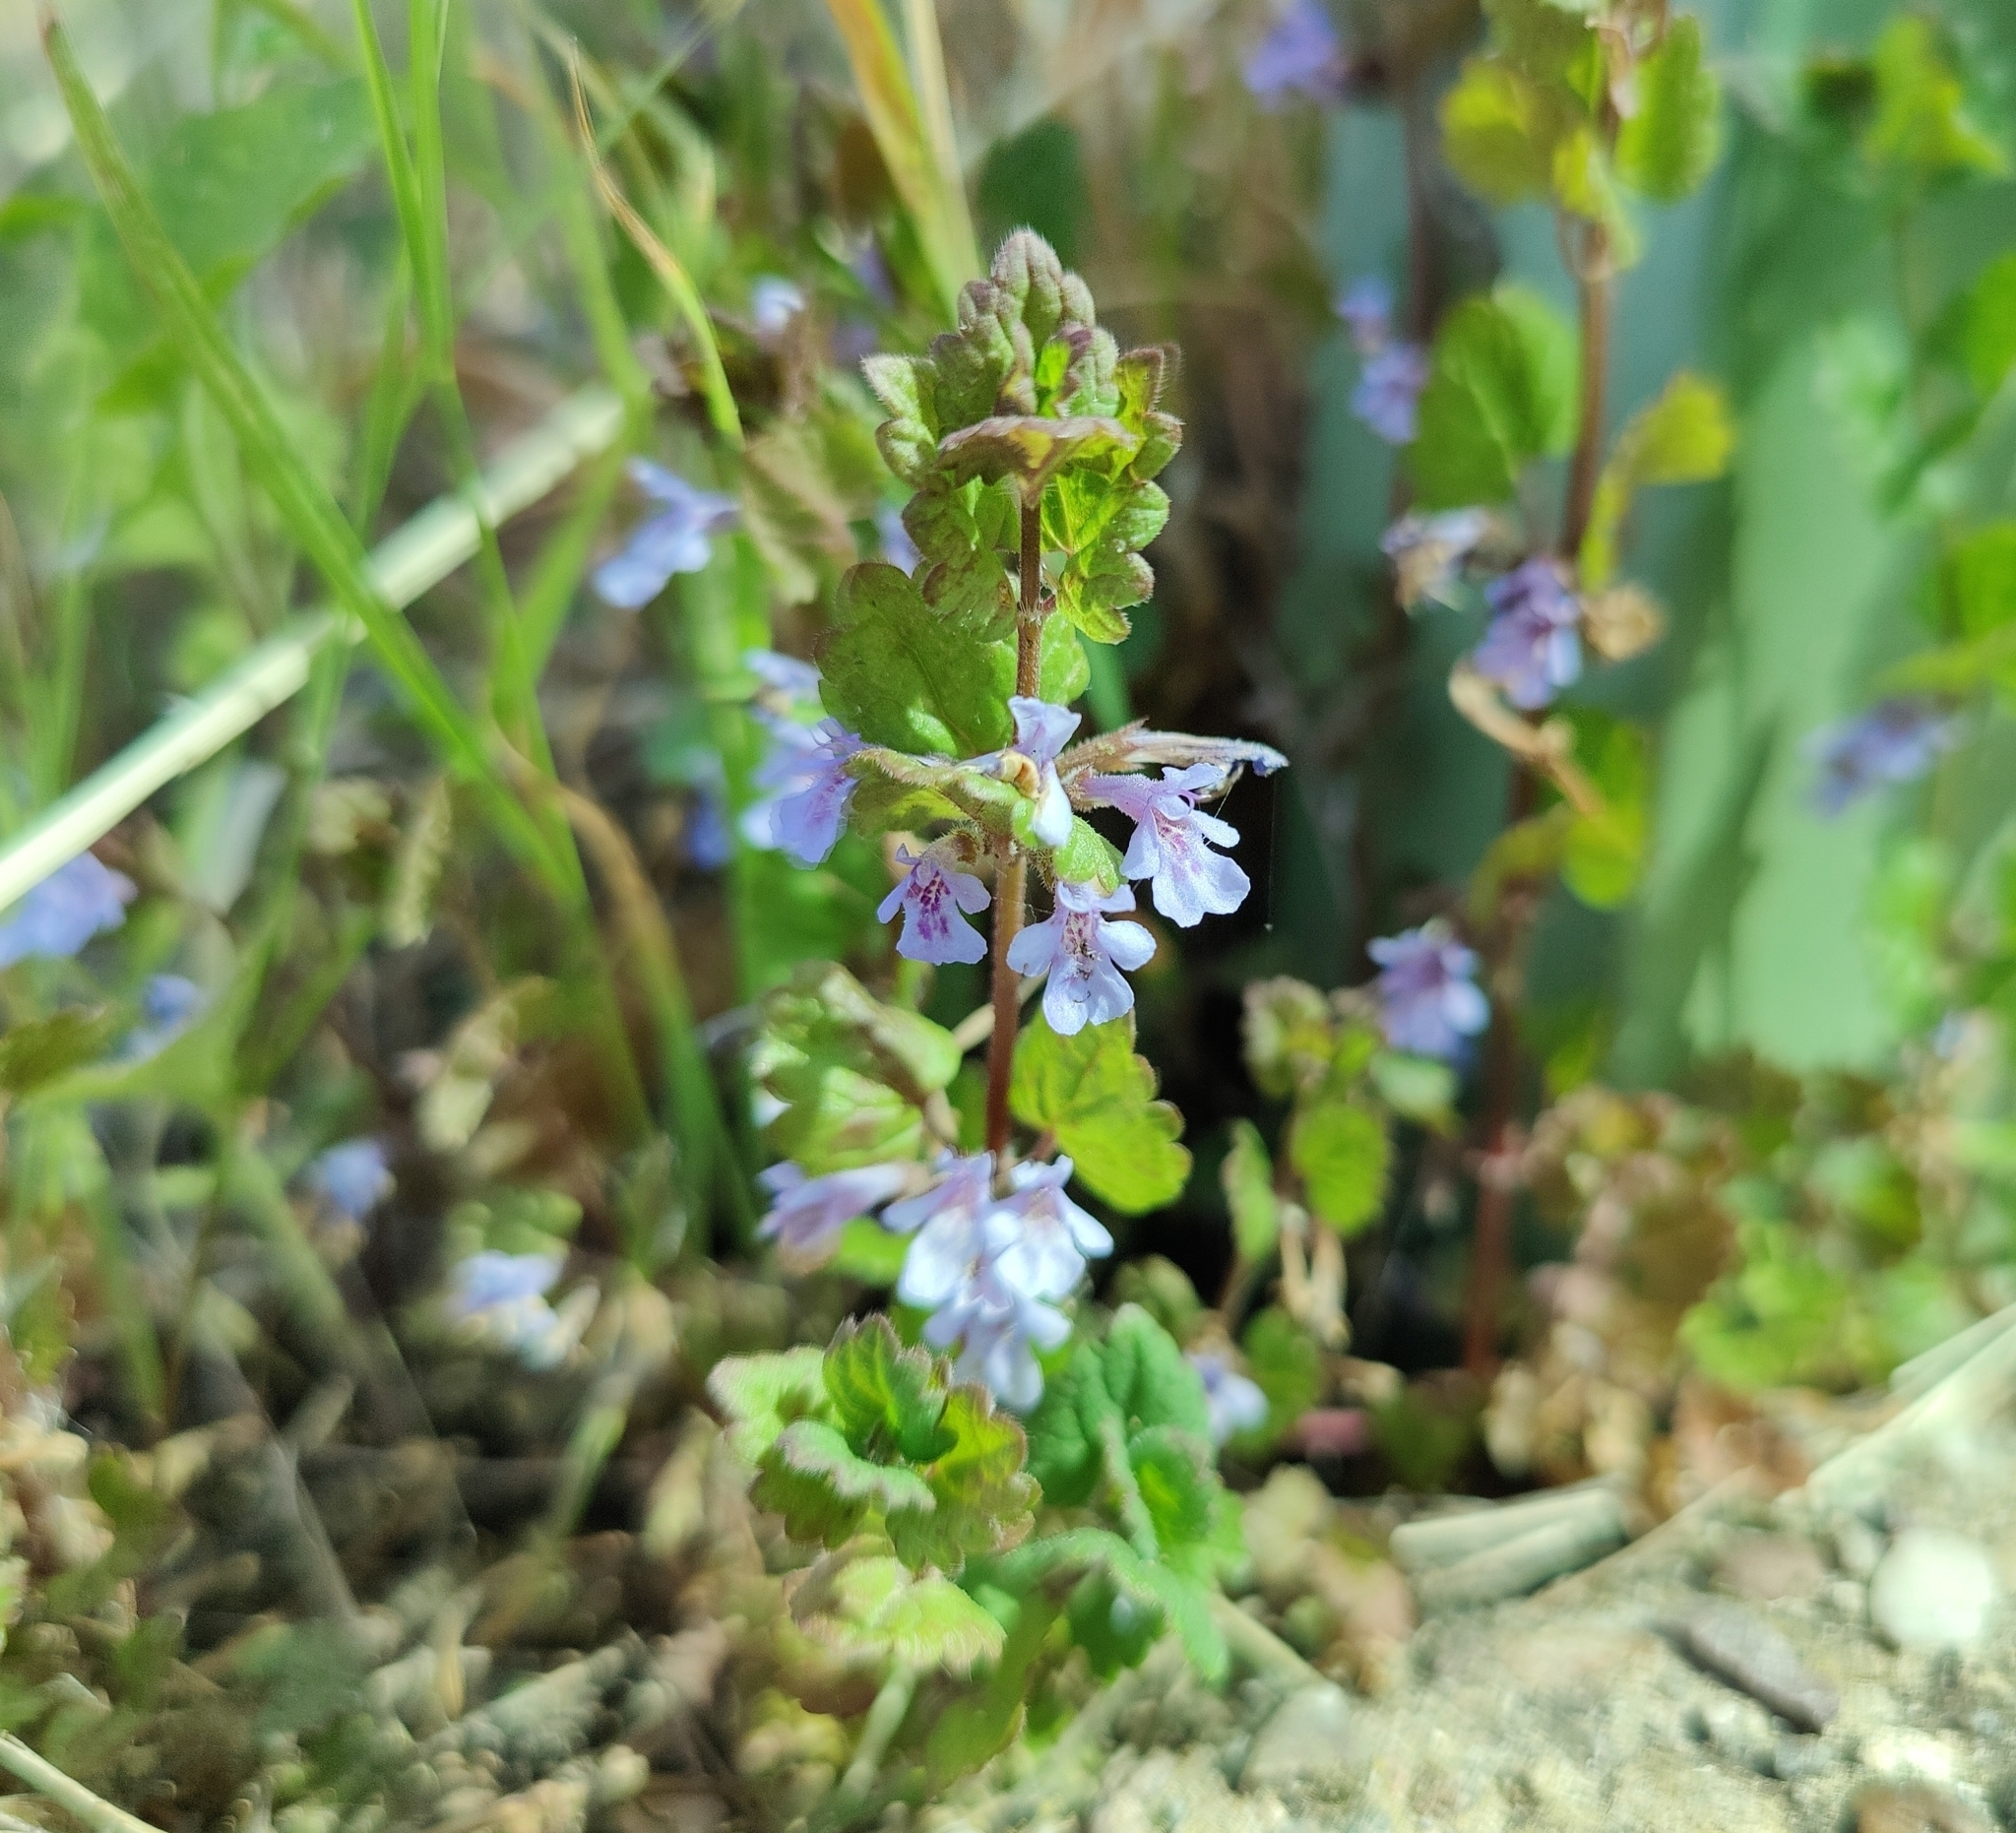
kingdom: Plantae
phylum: Tracheophyta
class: Magnoliopsida
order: Lamiales
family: Lamiaceae
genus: Glechoma
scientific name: Glechoma hederacea
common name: Ground ivy
